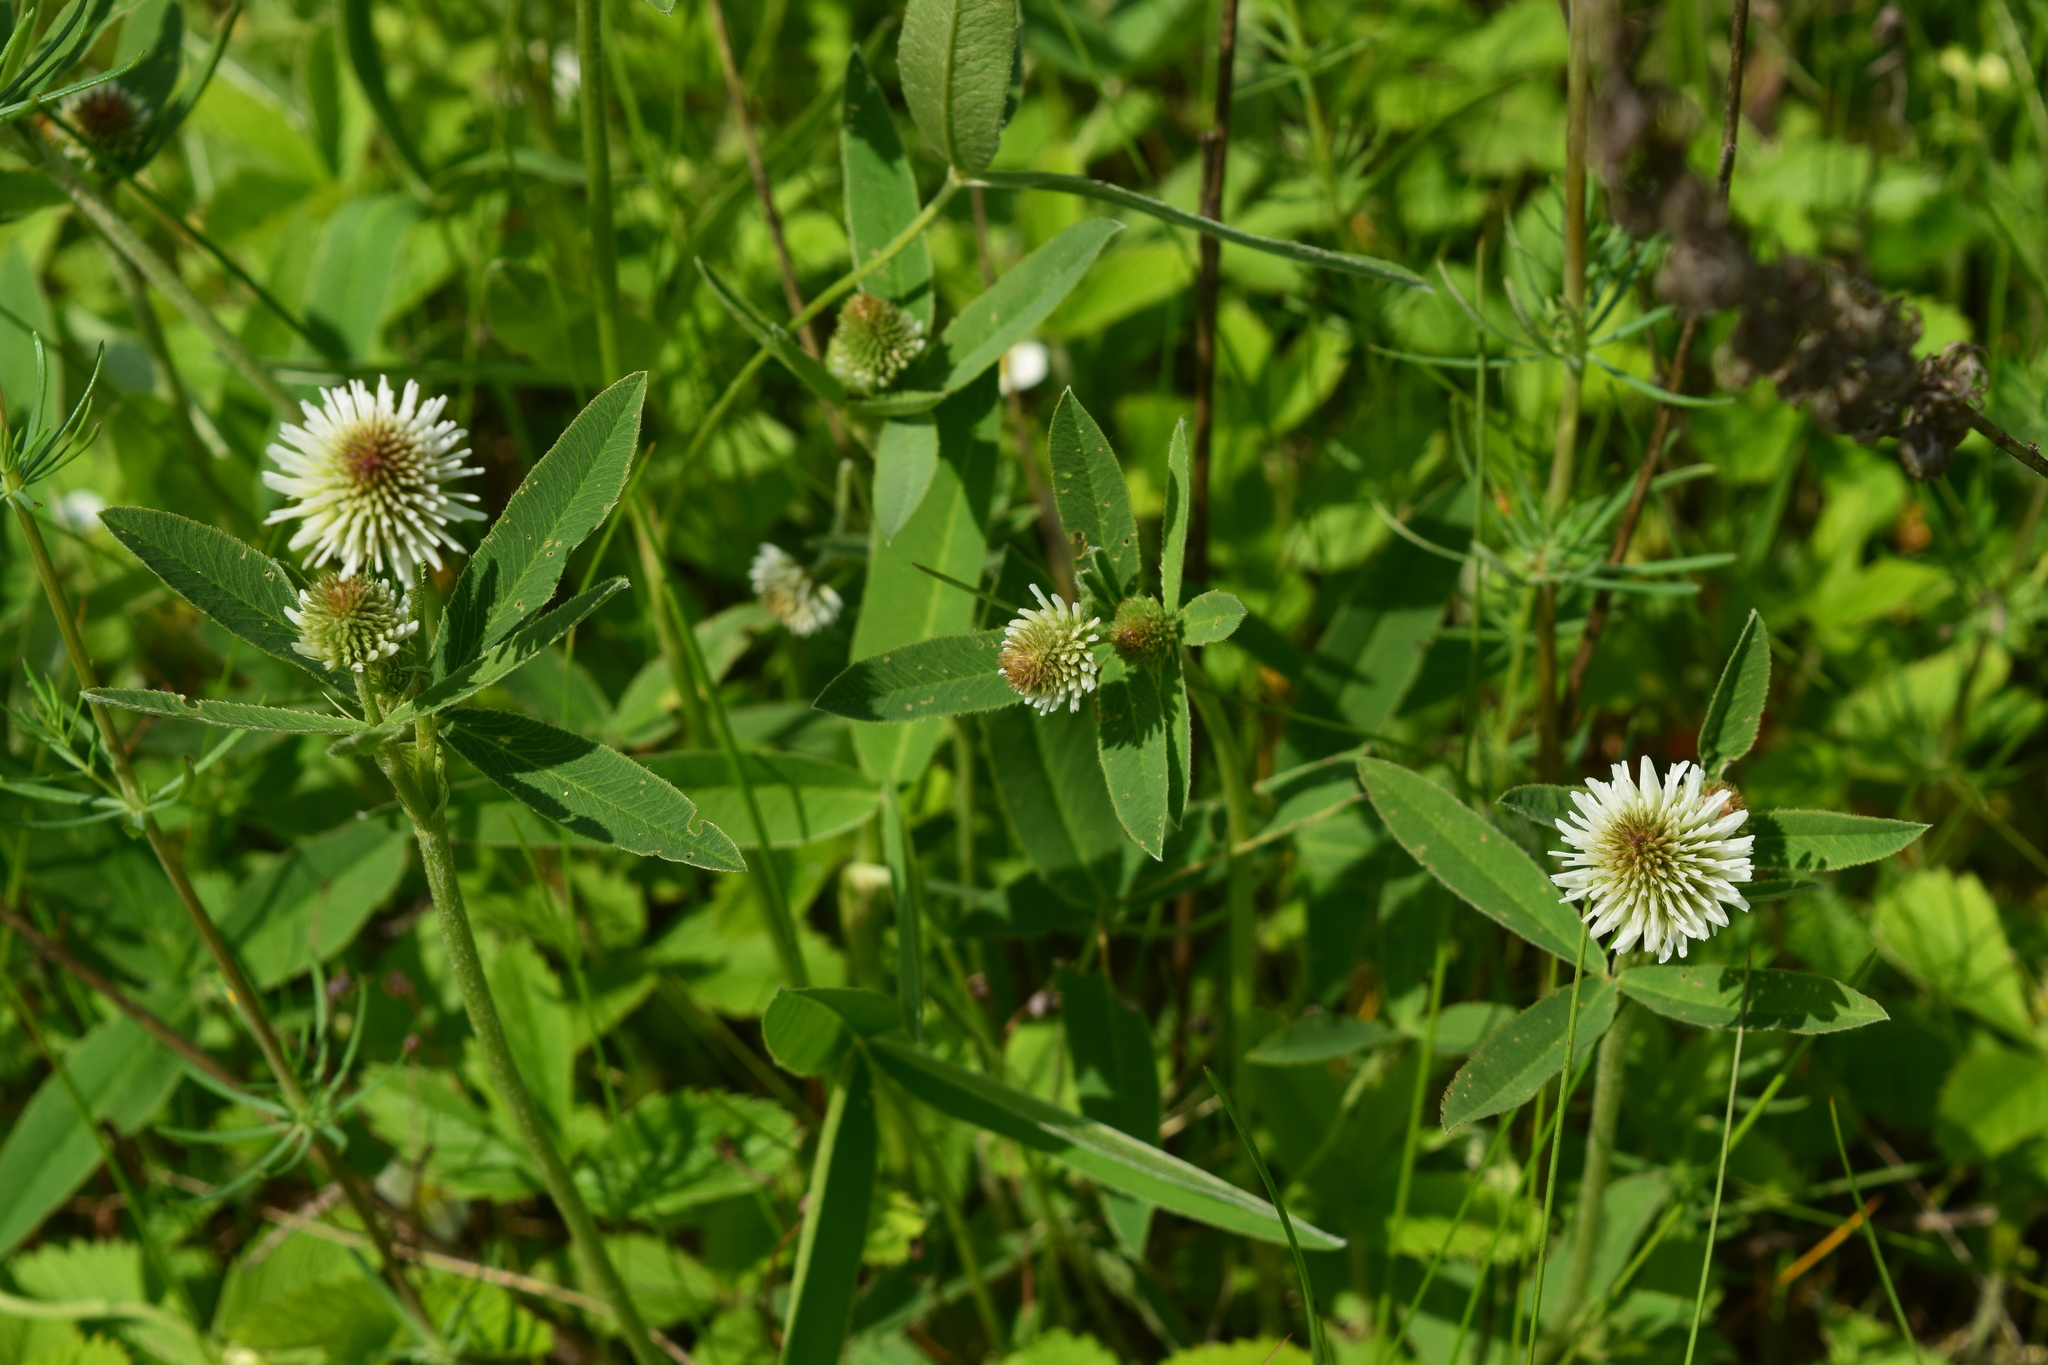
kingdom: Plantae
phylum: Tracheophyta
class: Magnoliopsida
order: Fabales
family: Fabaceae
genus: Trifolium
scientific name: Trifolium montanum
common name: Mountain clover
